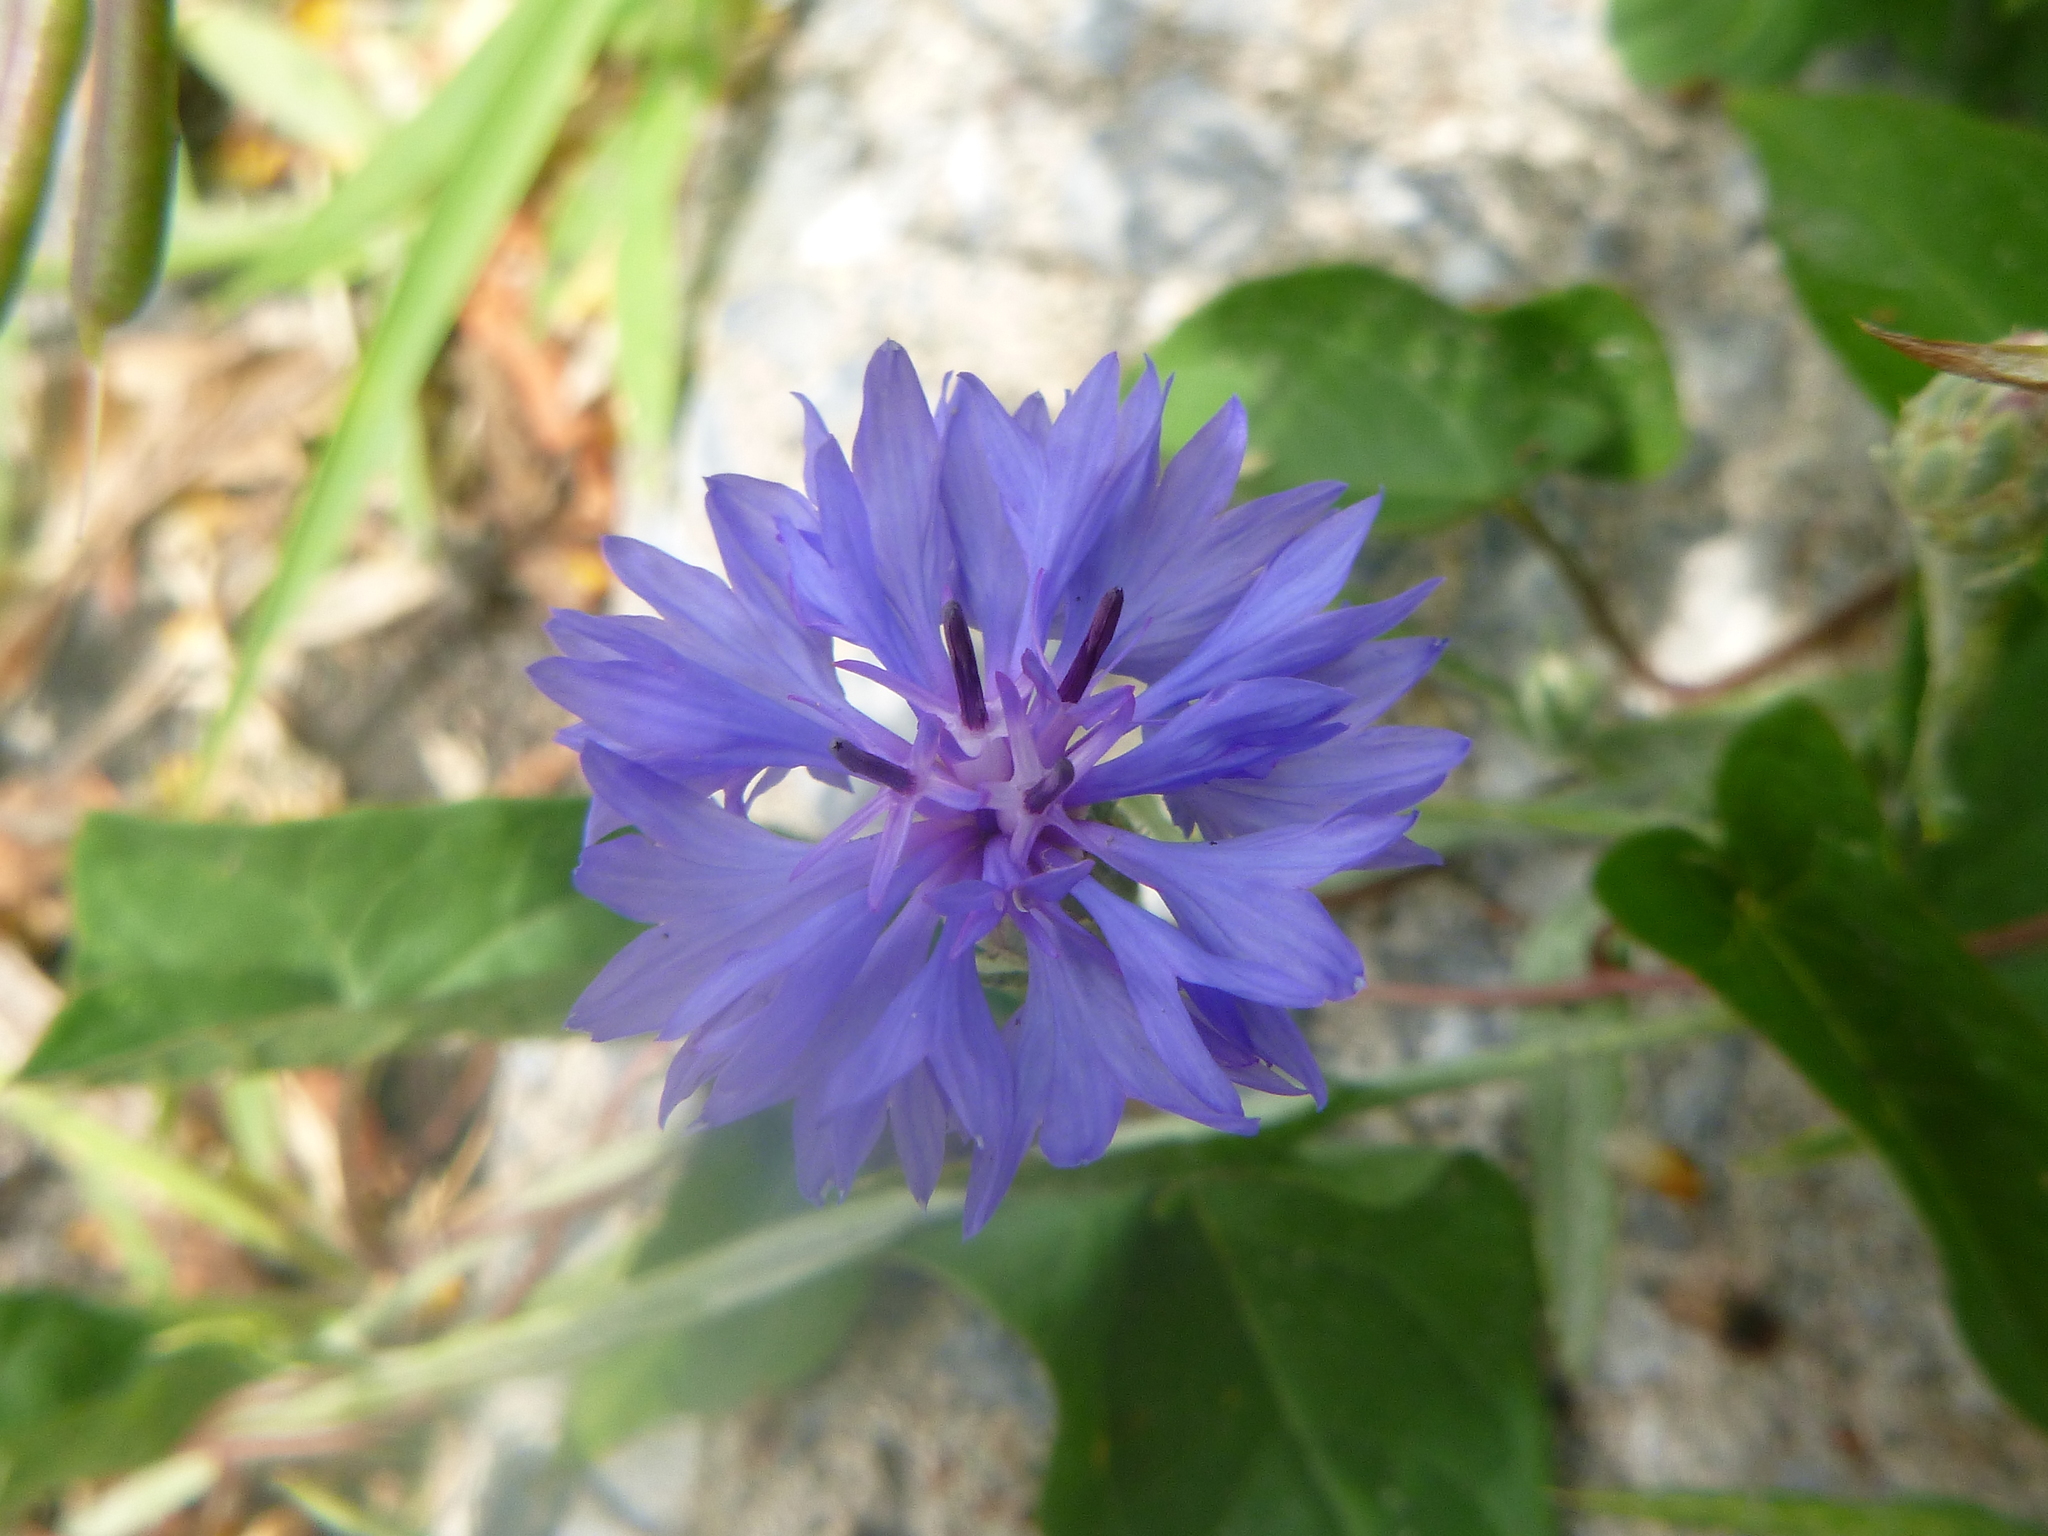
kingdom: Plantae
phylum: Tracheophyta
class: Magnoliopsida
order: Asterales
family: Asteraceae
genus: Centaurea
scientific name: Centaurea cyanus
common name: Cornflower
